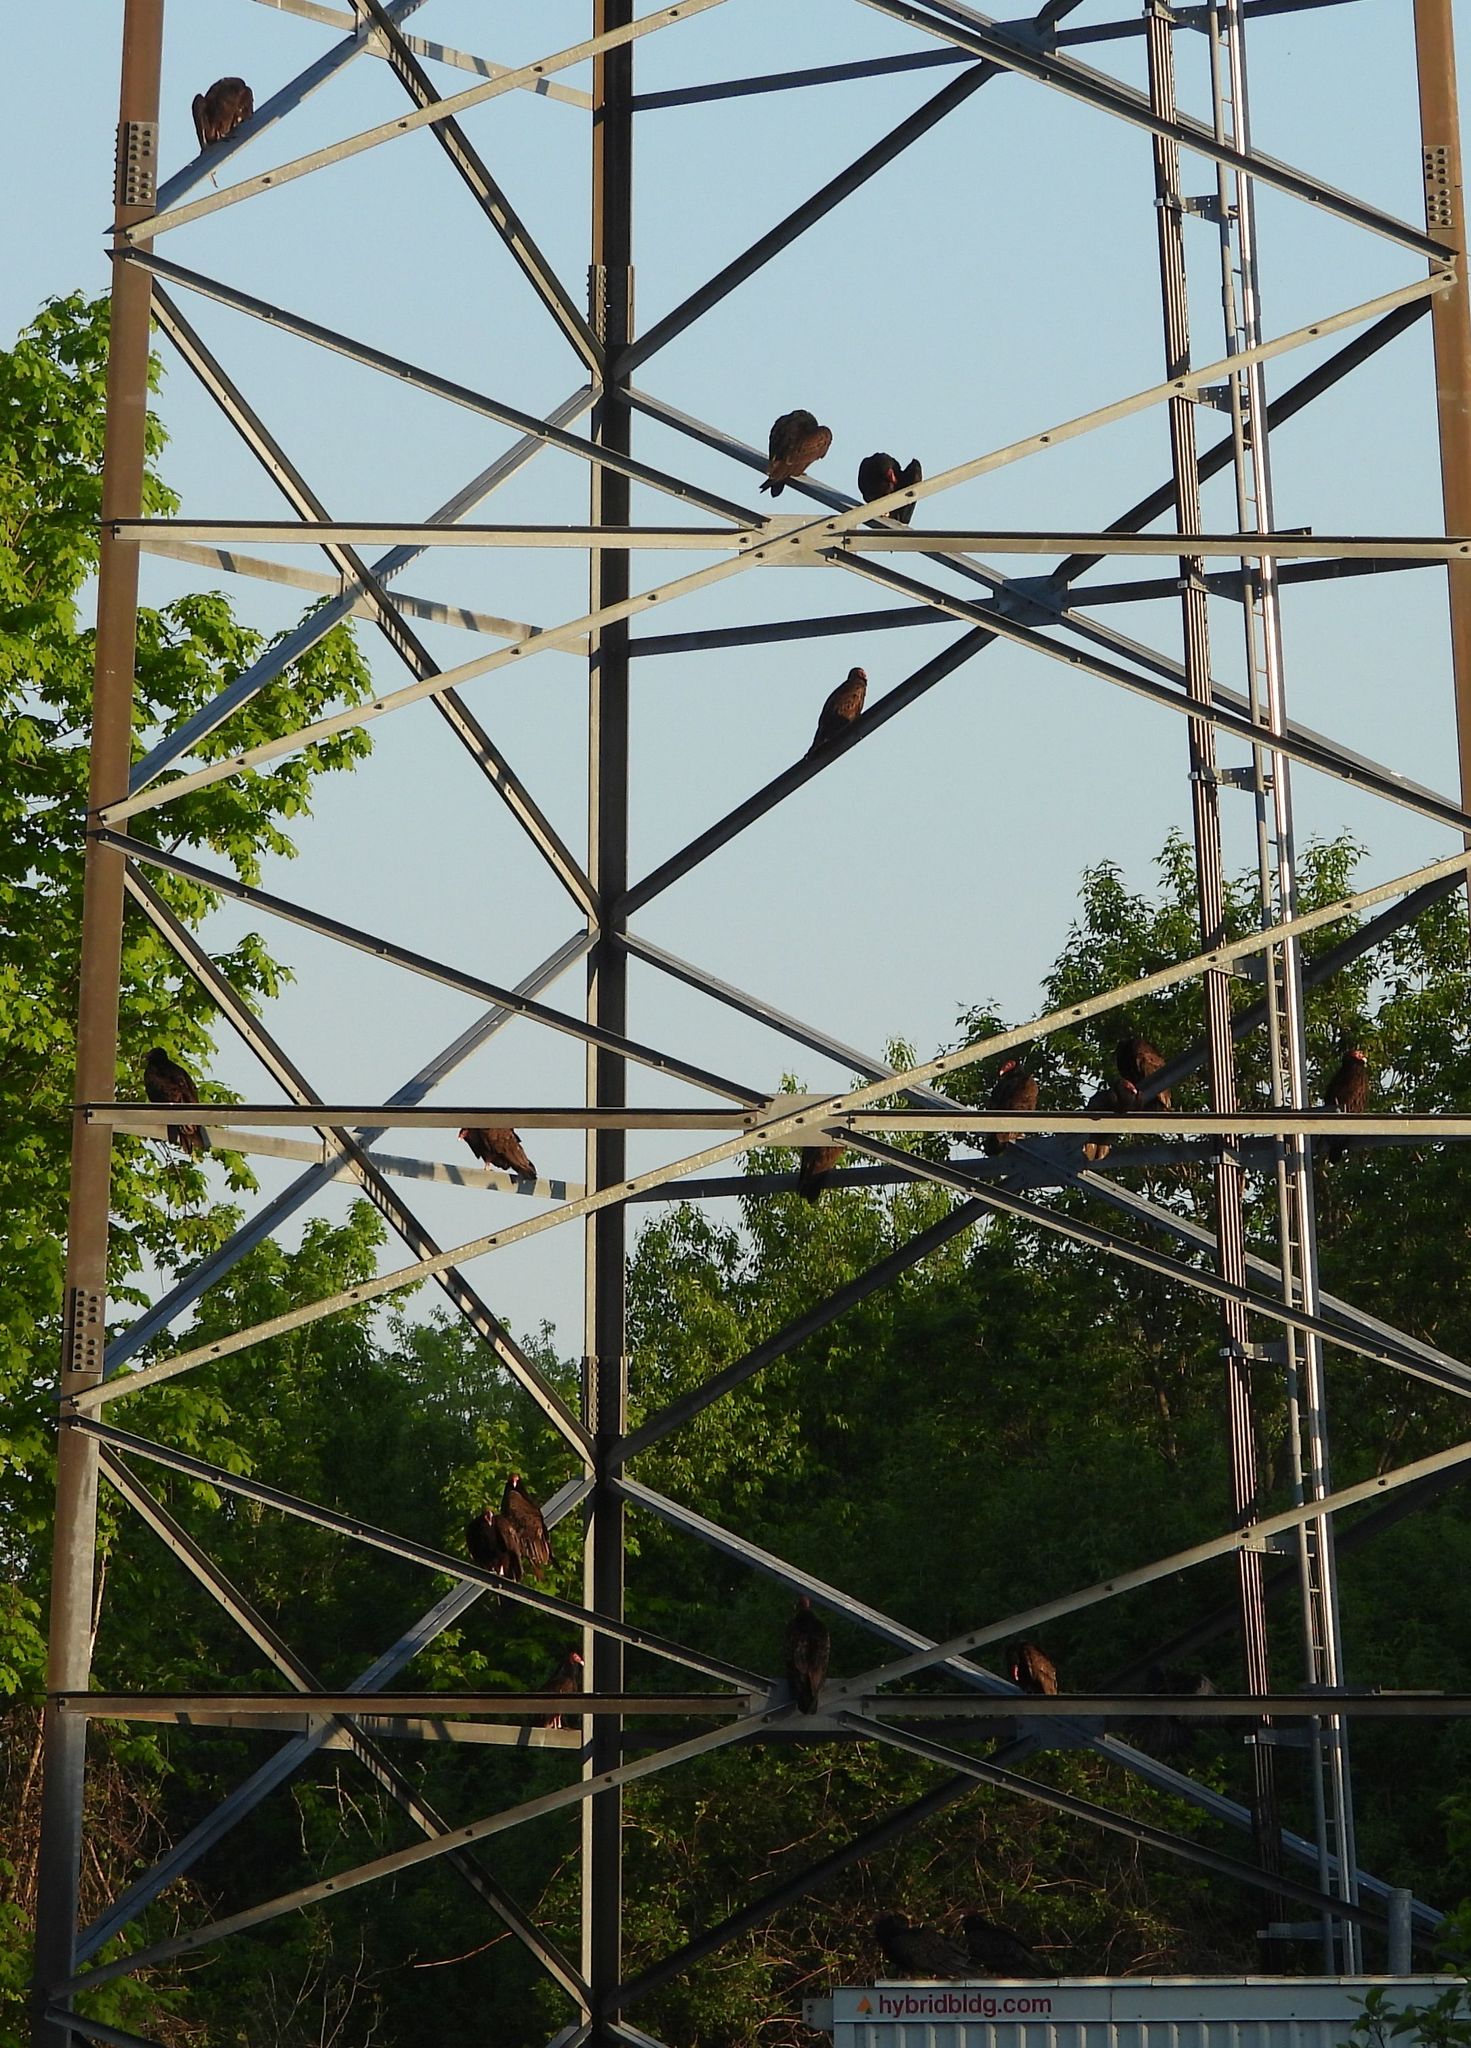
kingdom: Animalia
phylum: Chordata
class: Aves
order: Accipitriformes
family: Cathartidae
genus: Cathartes
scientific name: Cathartes aura
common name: Turkey vulture
